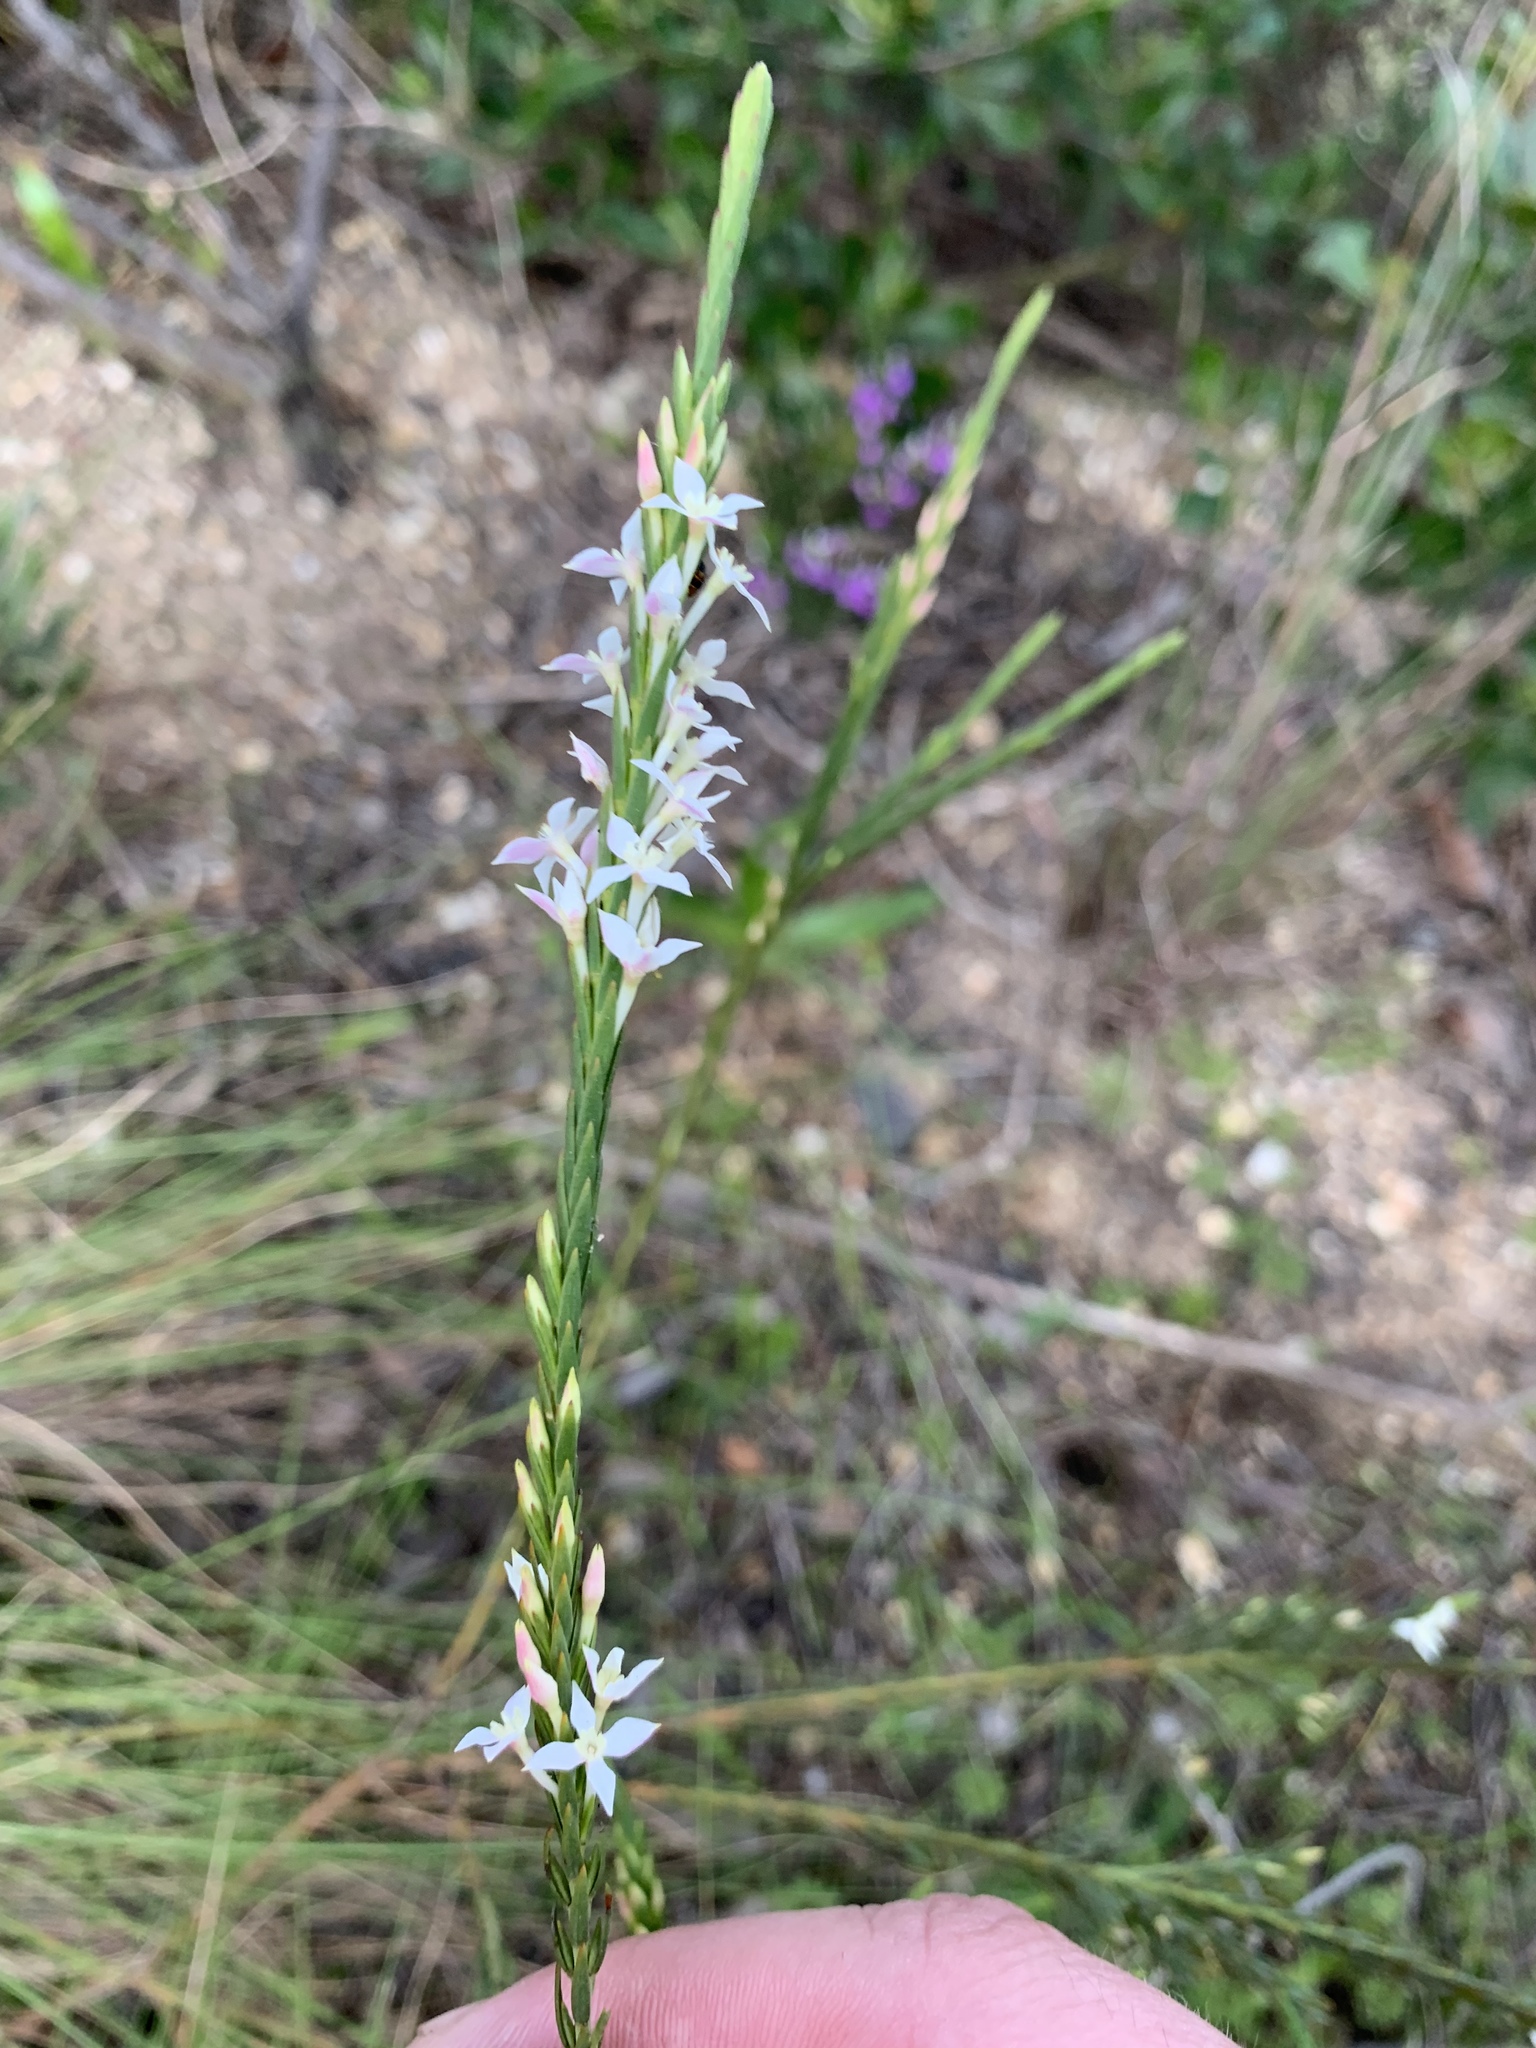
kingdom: Plantae
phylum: Tracheophyta
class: Magnoliopsida
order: Malvales
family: Thymelaeaceae
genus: Struthiola
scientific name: Struthiola dodecandra
